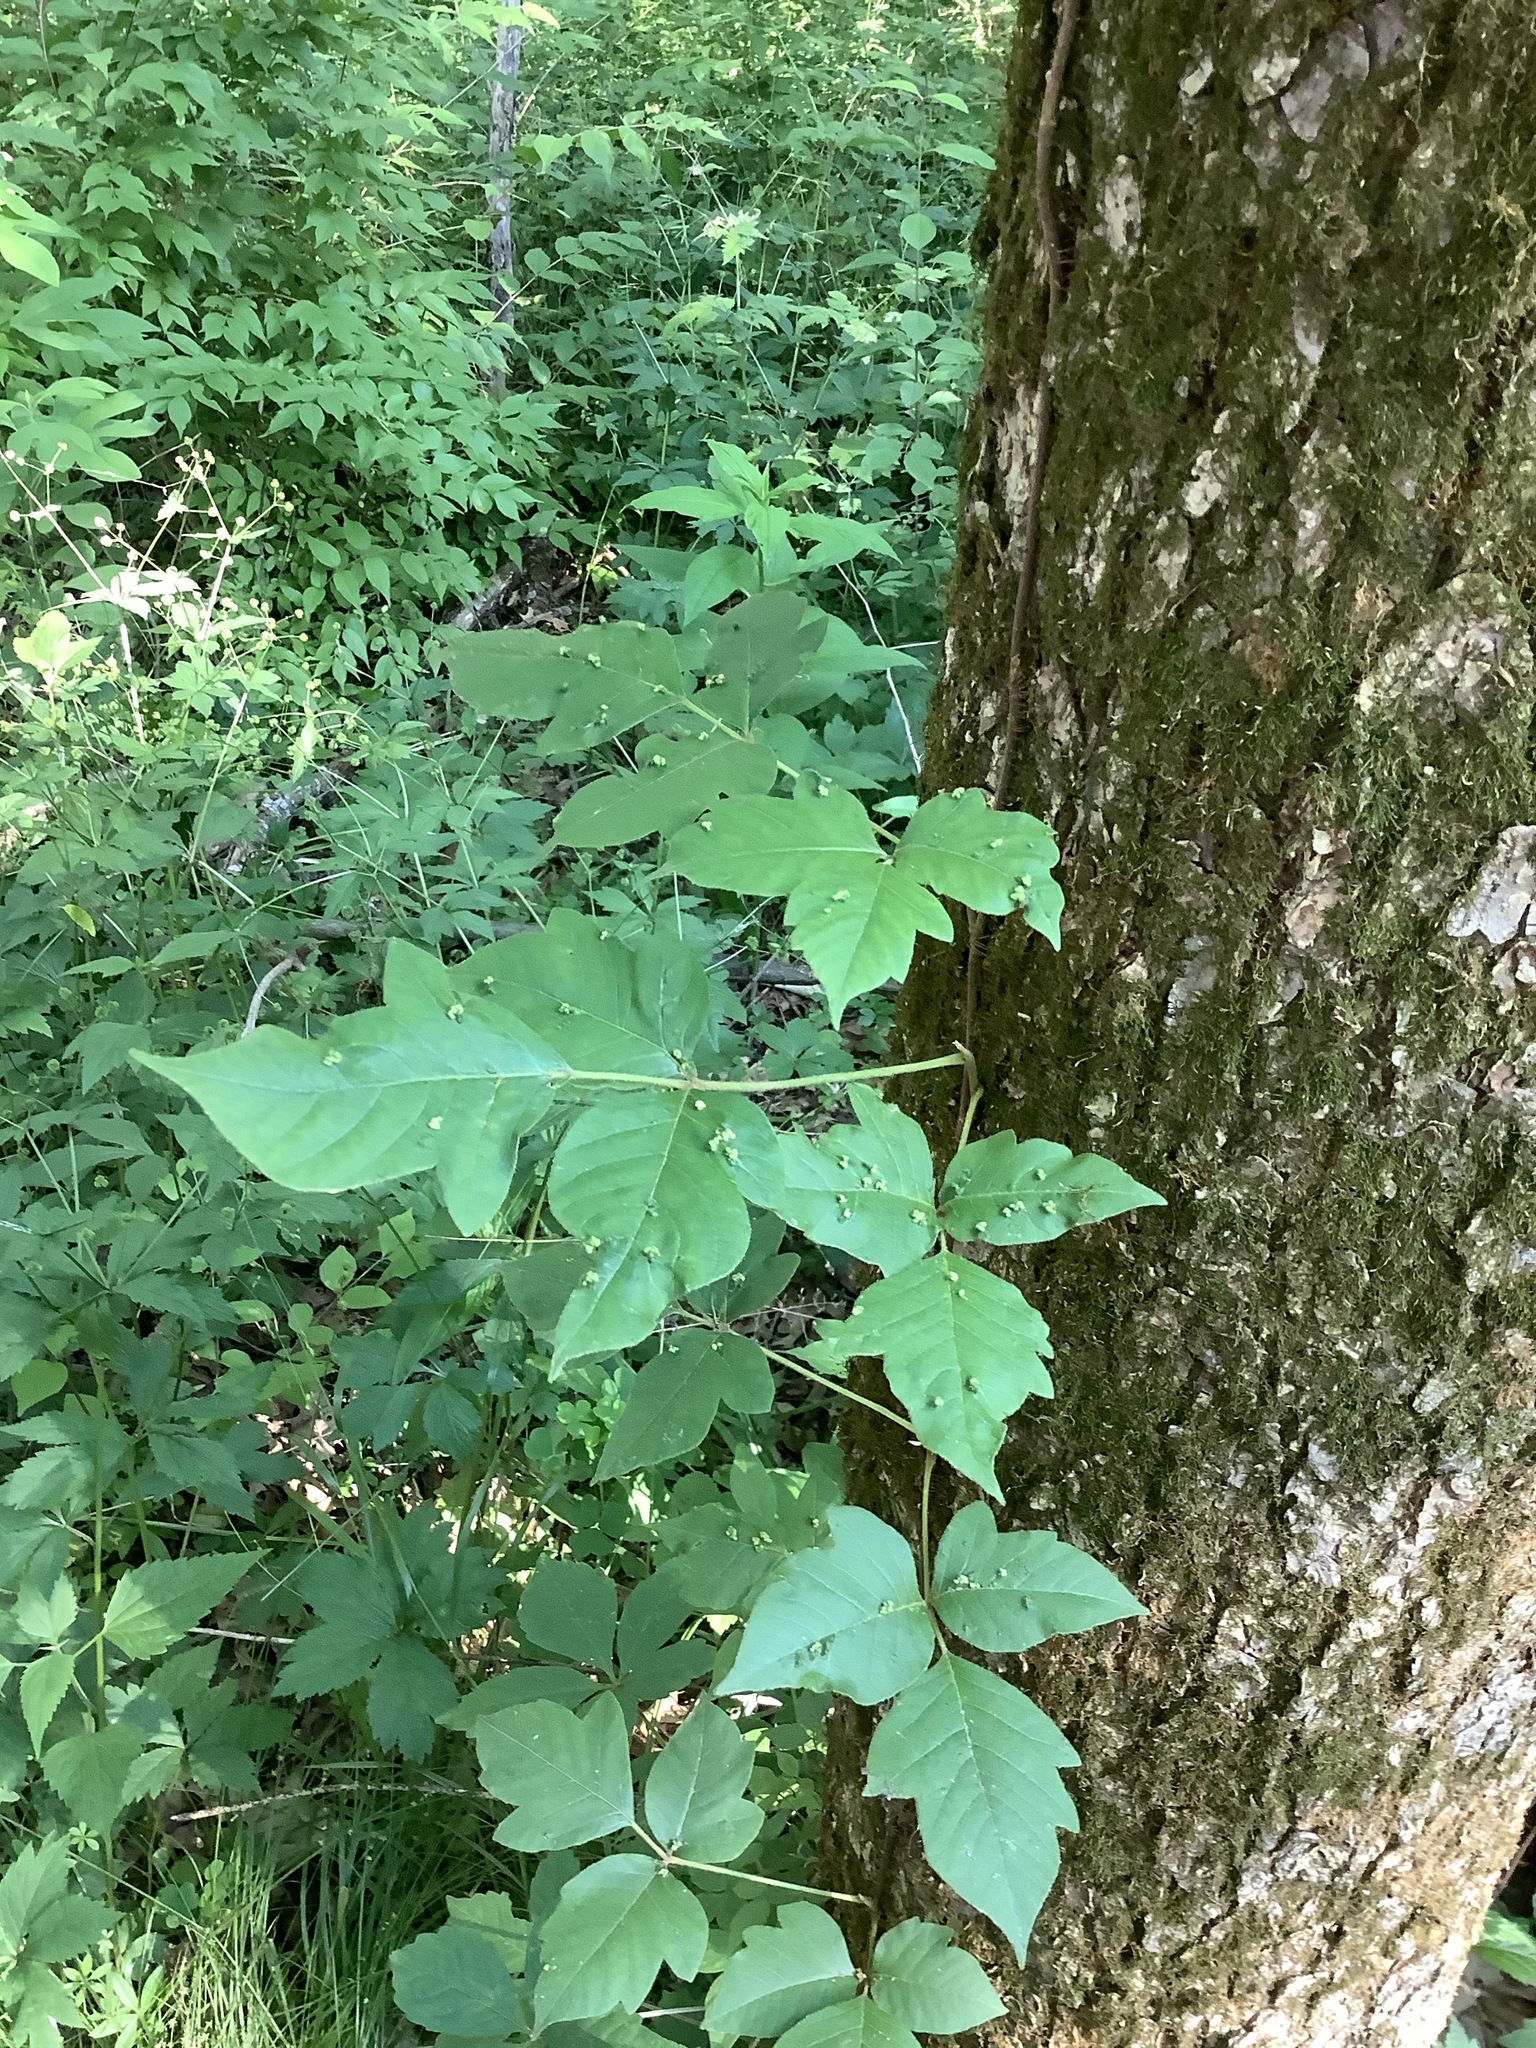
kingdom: Plantae
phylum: Tracheophyta
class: Magnoliopsida
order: Sapindales
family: Anacardiaceae
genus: Toxicodendron
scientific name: Toxicodendron radicans
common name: Poison ivy
